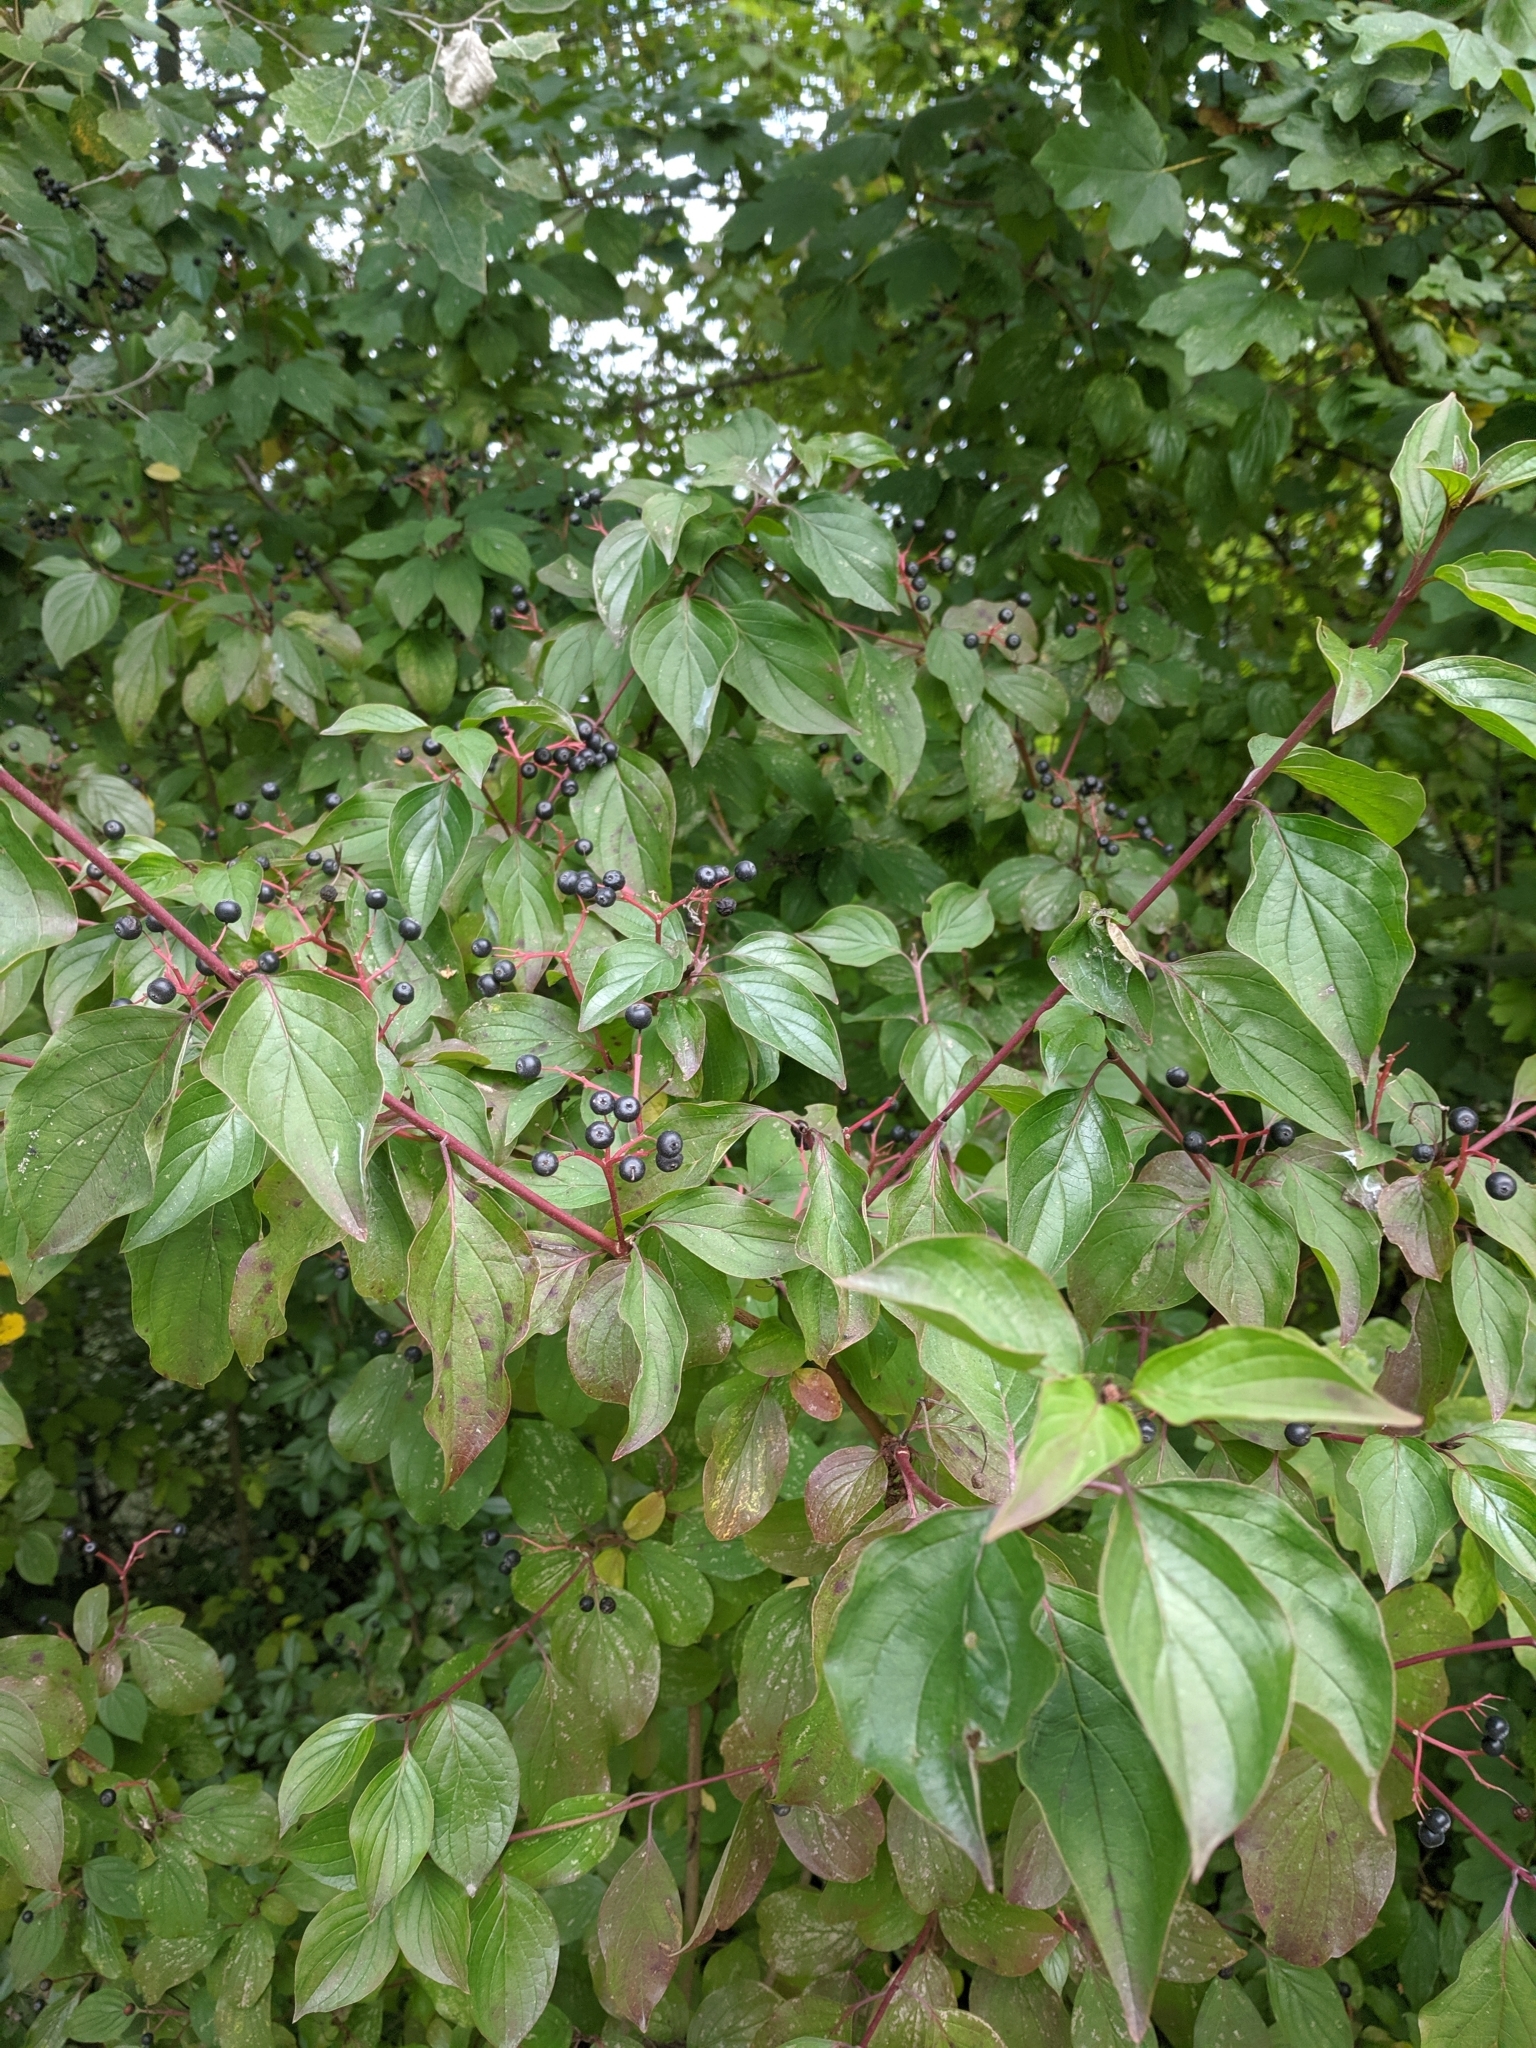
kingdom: Plantae
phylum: Tracheophyta
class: Magnoliopsida
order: Cornales
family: Cornaceae
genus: Cornus
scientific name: Cornus sanguinea
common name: Dogwood
